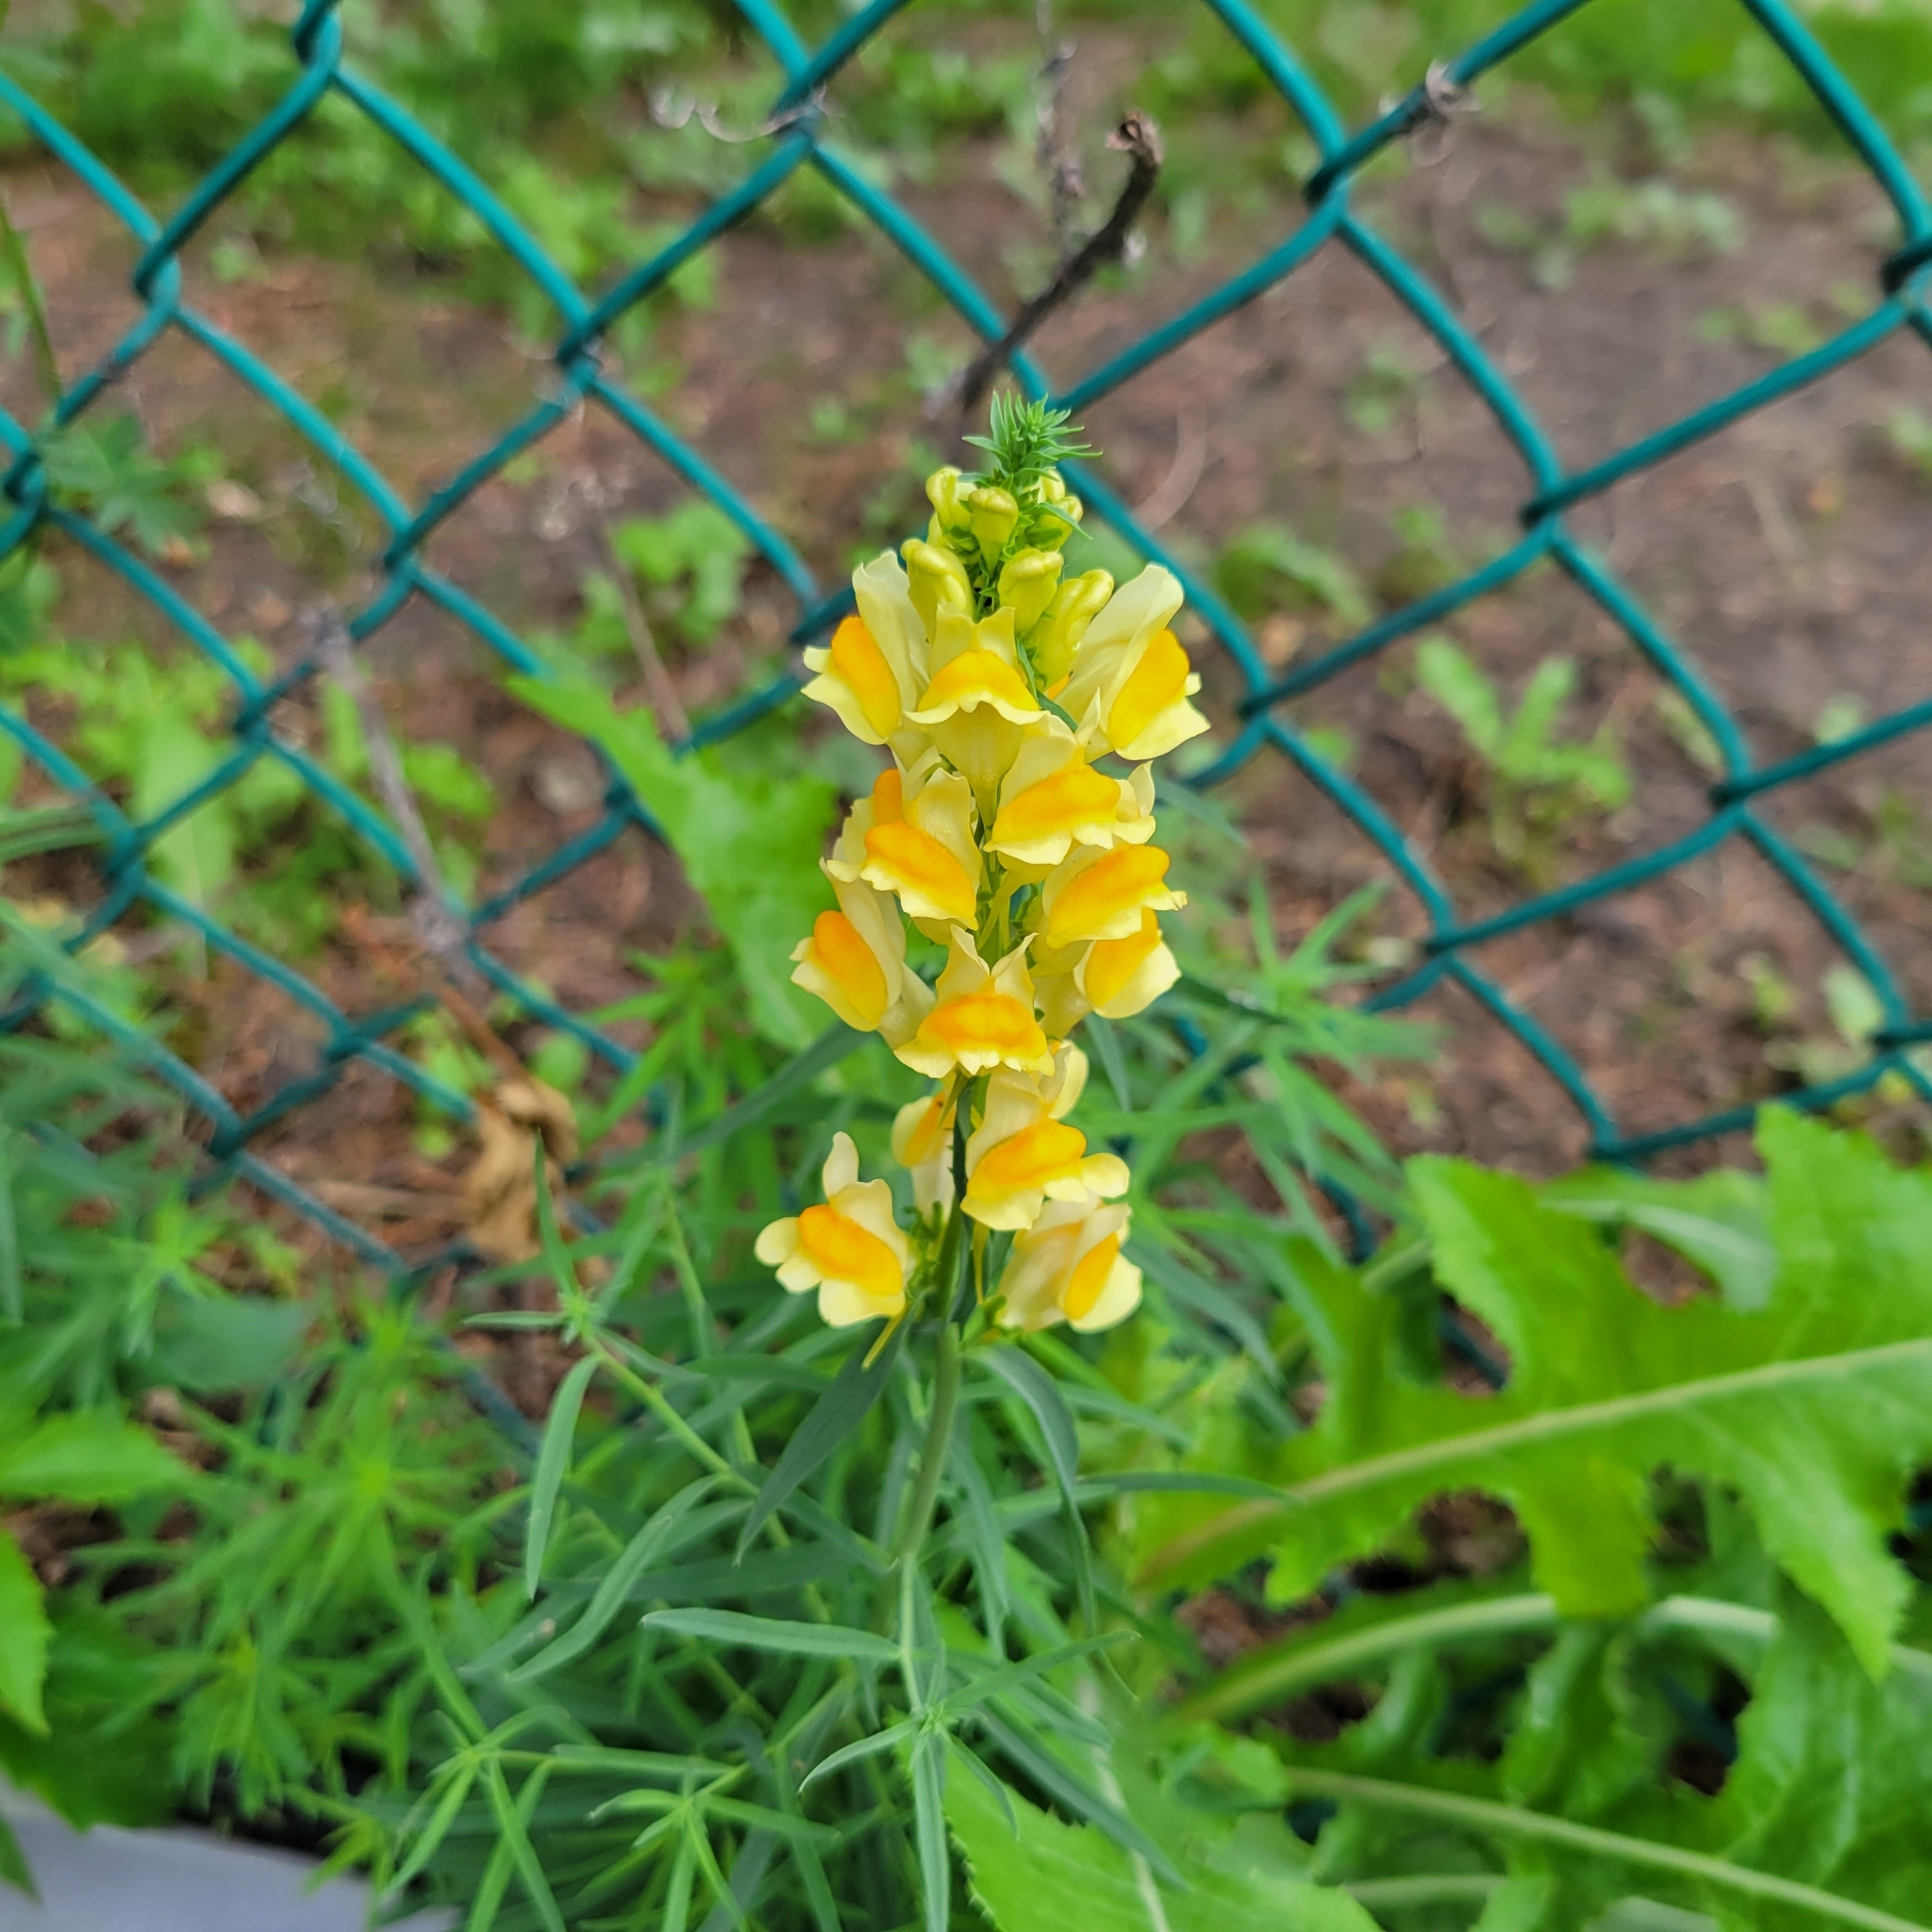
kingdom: Plantae
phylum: Tracheophyta
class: Magnoliopsida
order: Lamiales
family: Plantaginaceae
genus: Linaria
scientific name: Linaria vulgaris
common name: Butter and eggs
